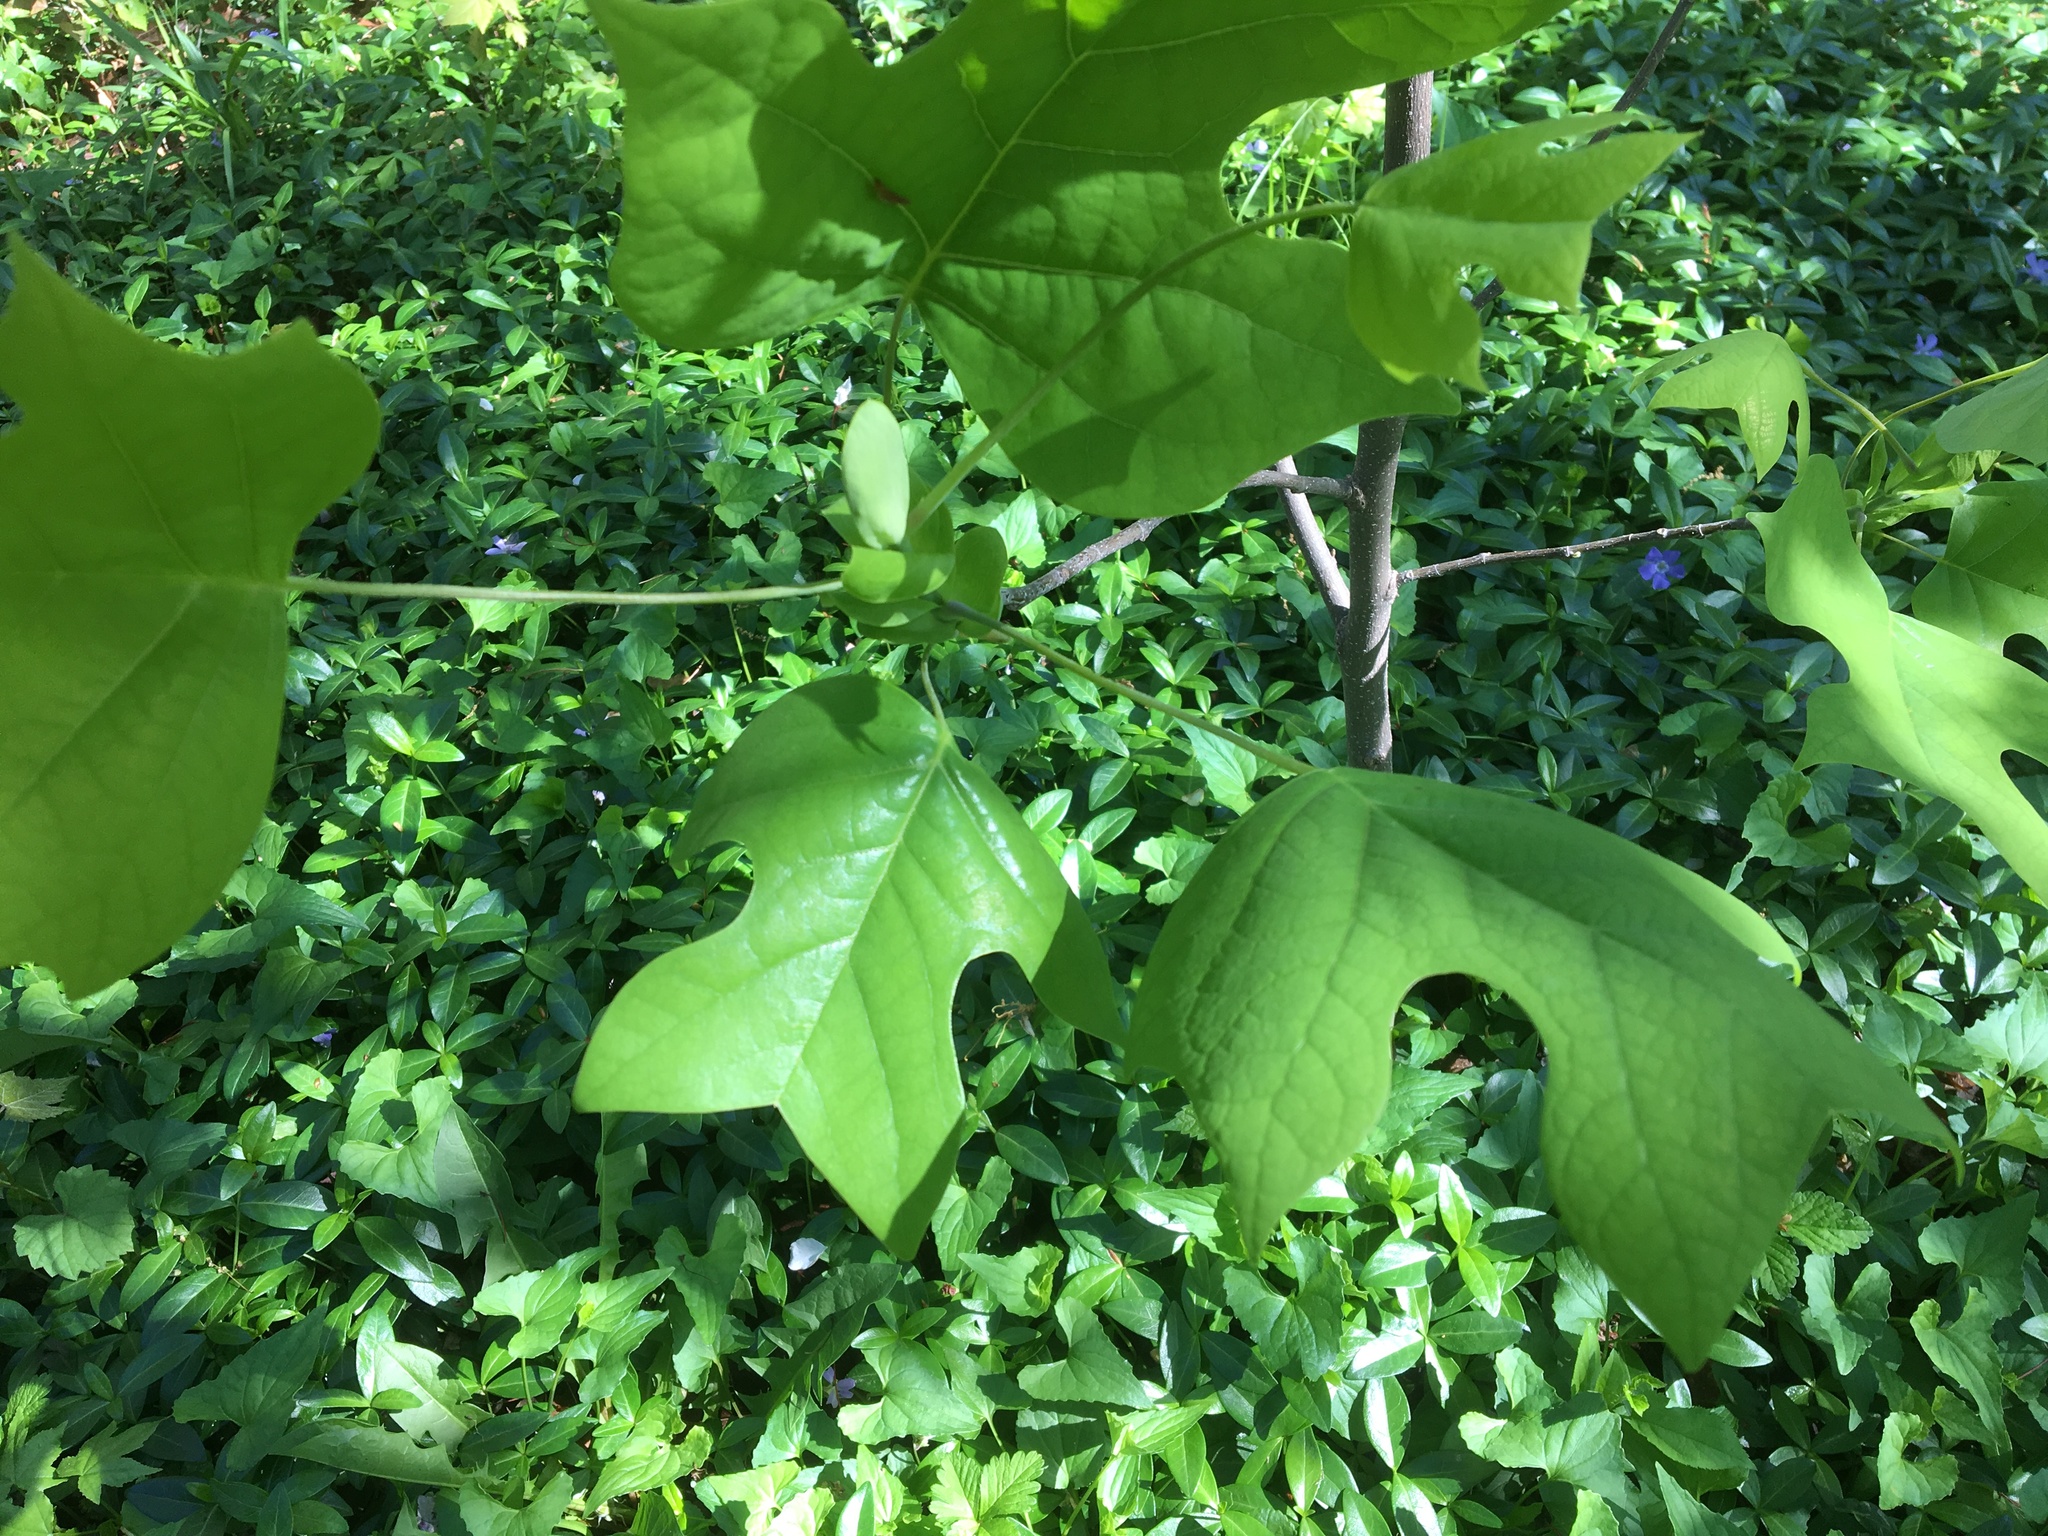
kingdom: Plantae
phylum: Tracheophyta
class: Magnoliopsida
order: Magnoliales
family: Magnoliaceae
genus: Liriodendron
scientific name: Liriodendron tulipifera
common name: Tulip tree
